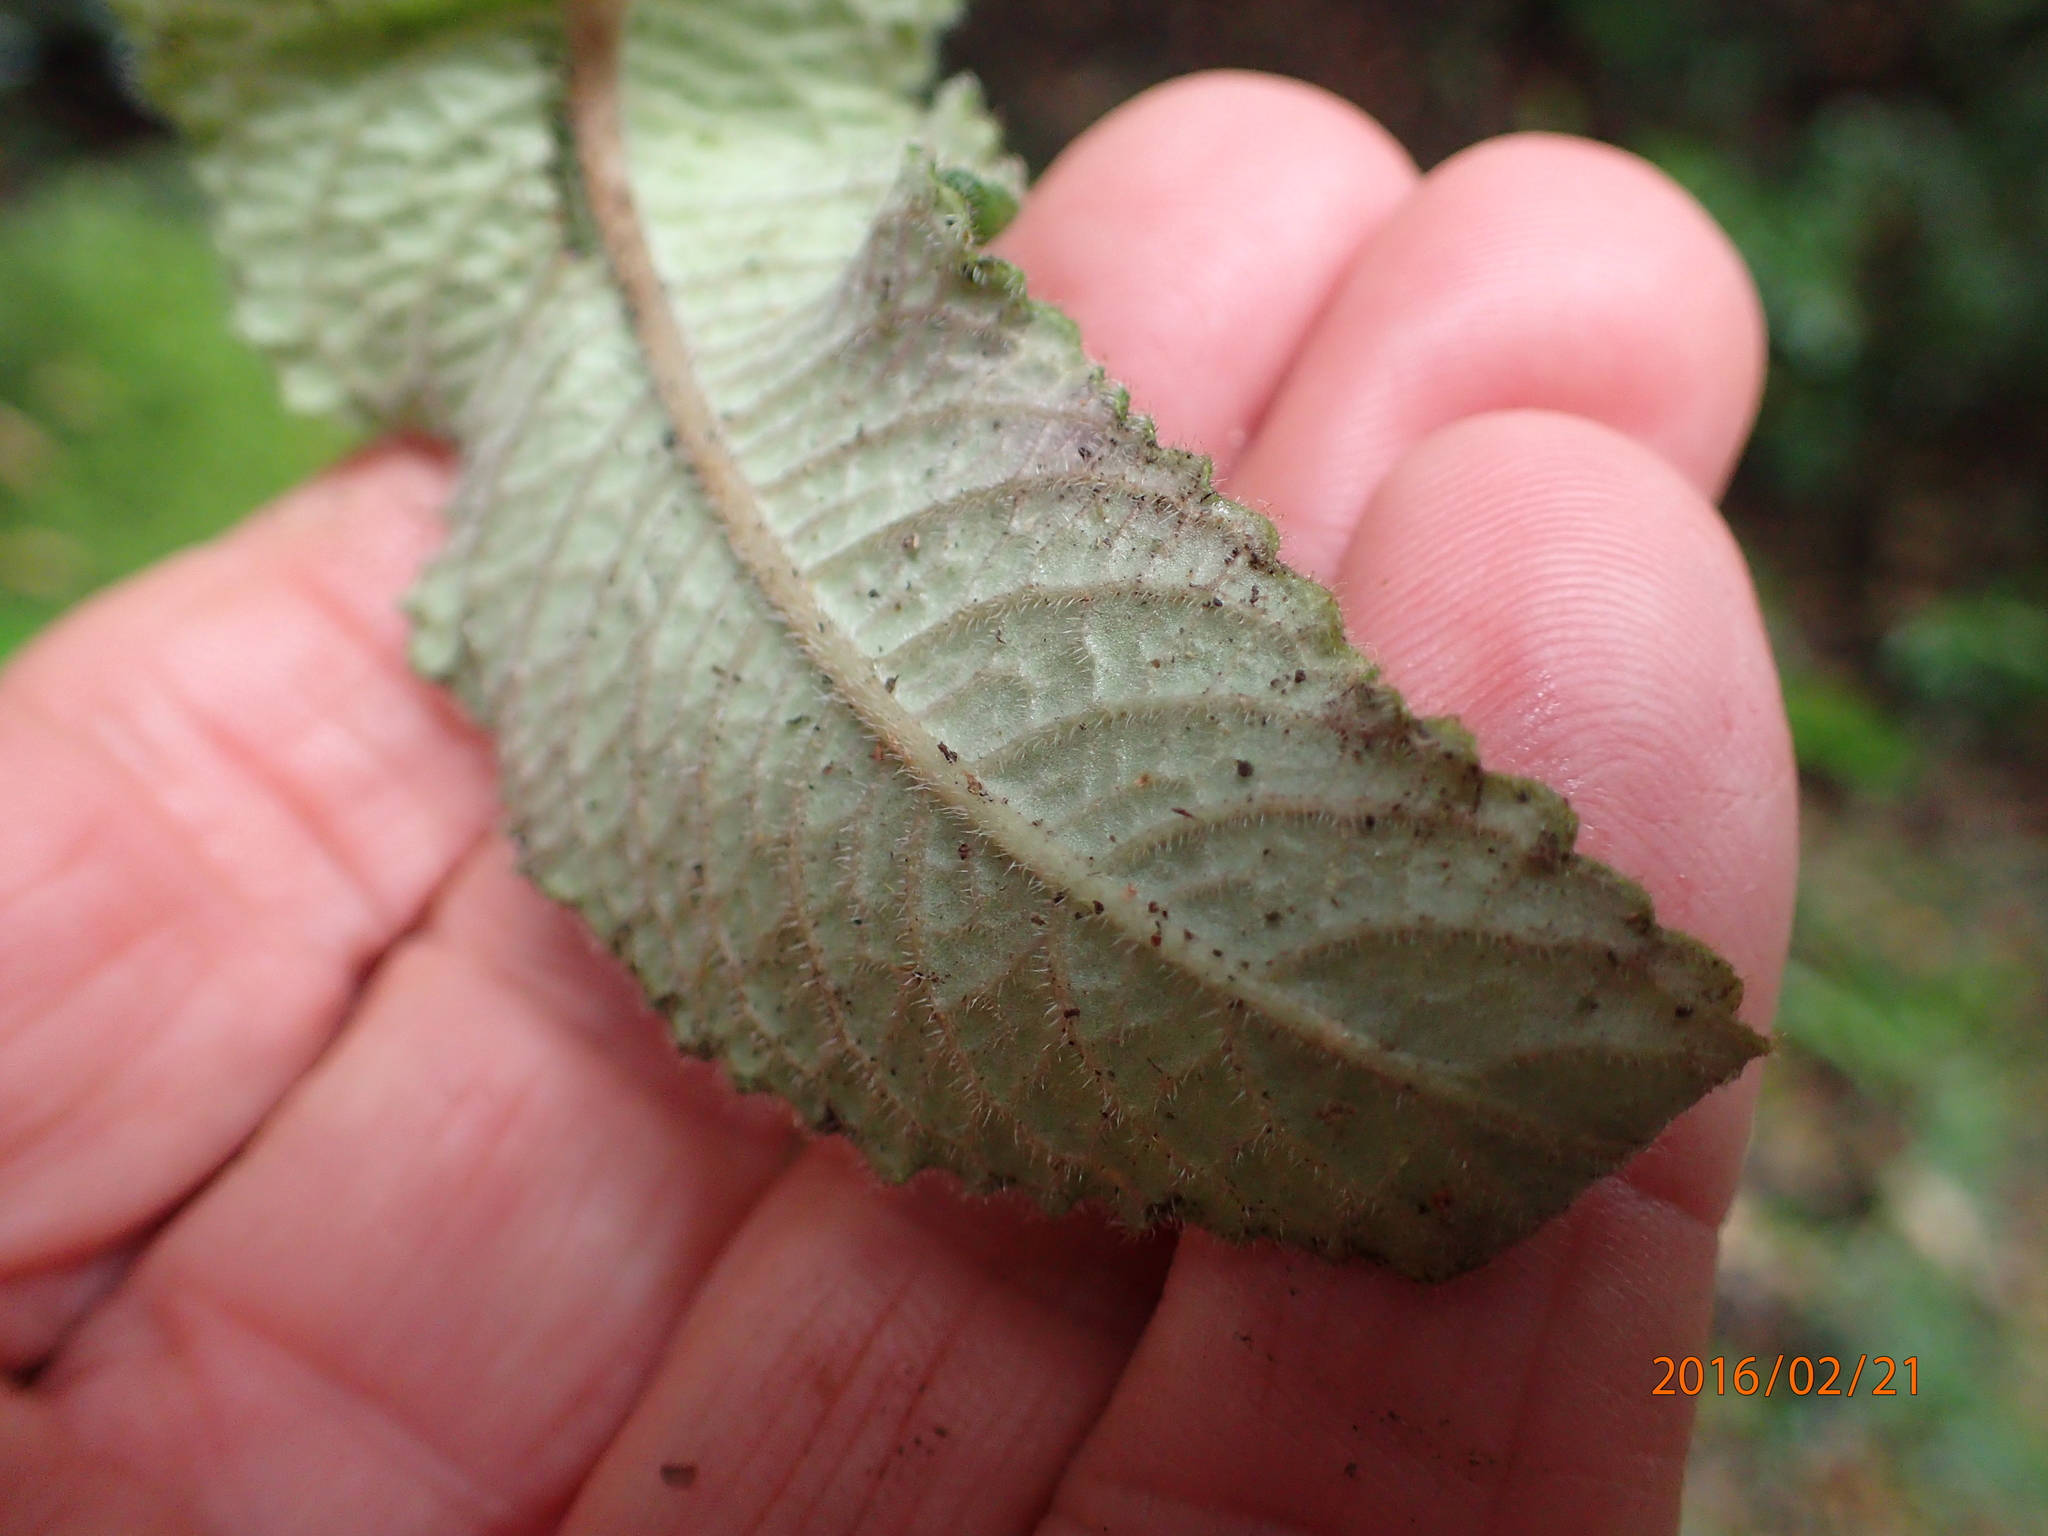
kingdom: Plantae
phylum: Tracheophyta
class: Magnoliopsida
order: Lamiales
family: Gesneriaceae
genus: Streptocarpus
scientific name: Streptocarpus gardenii
